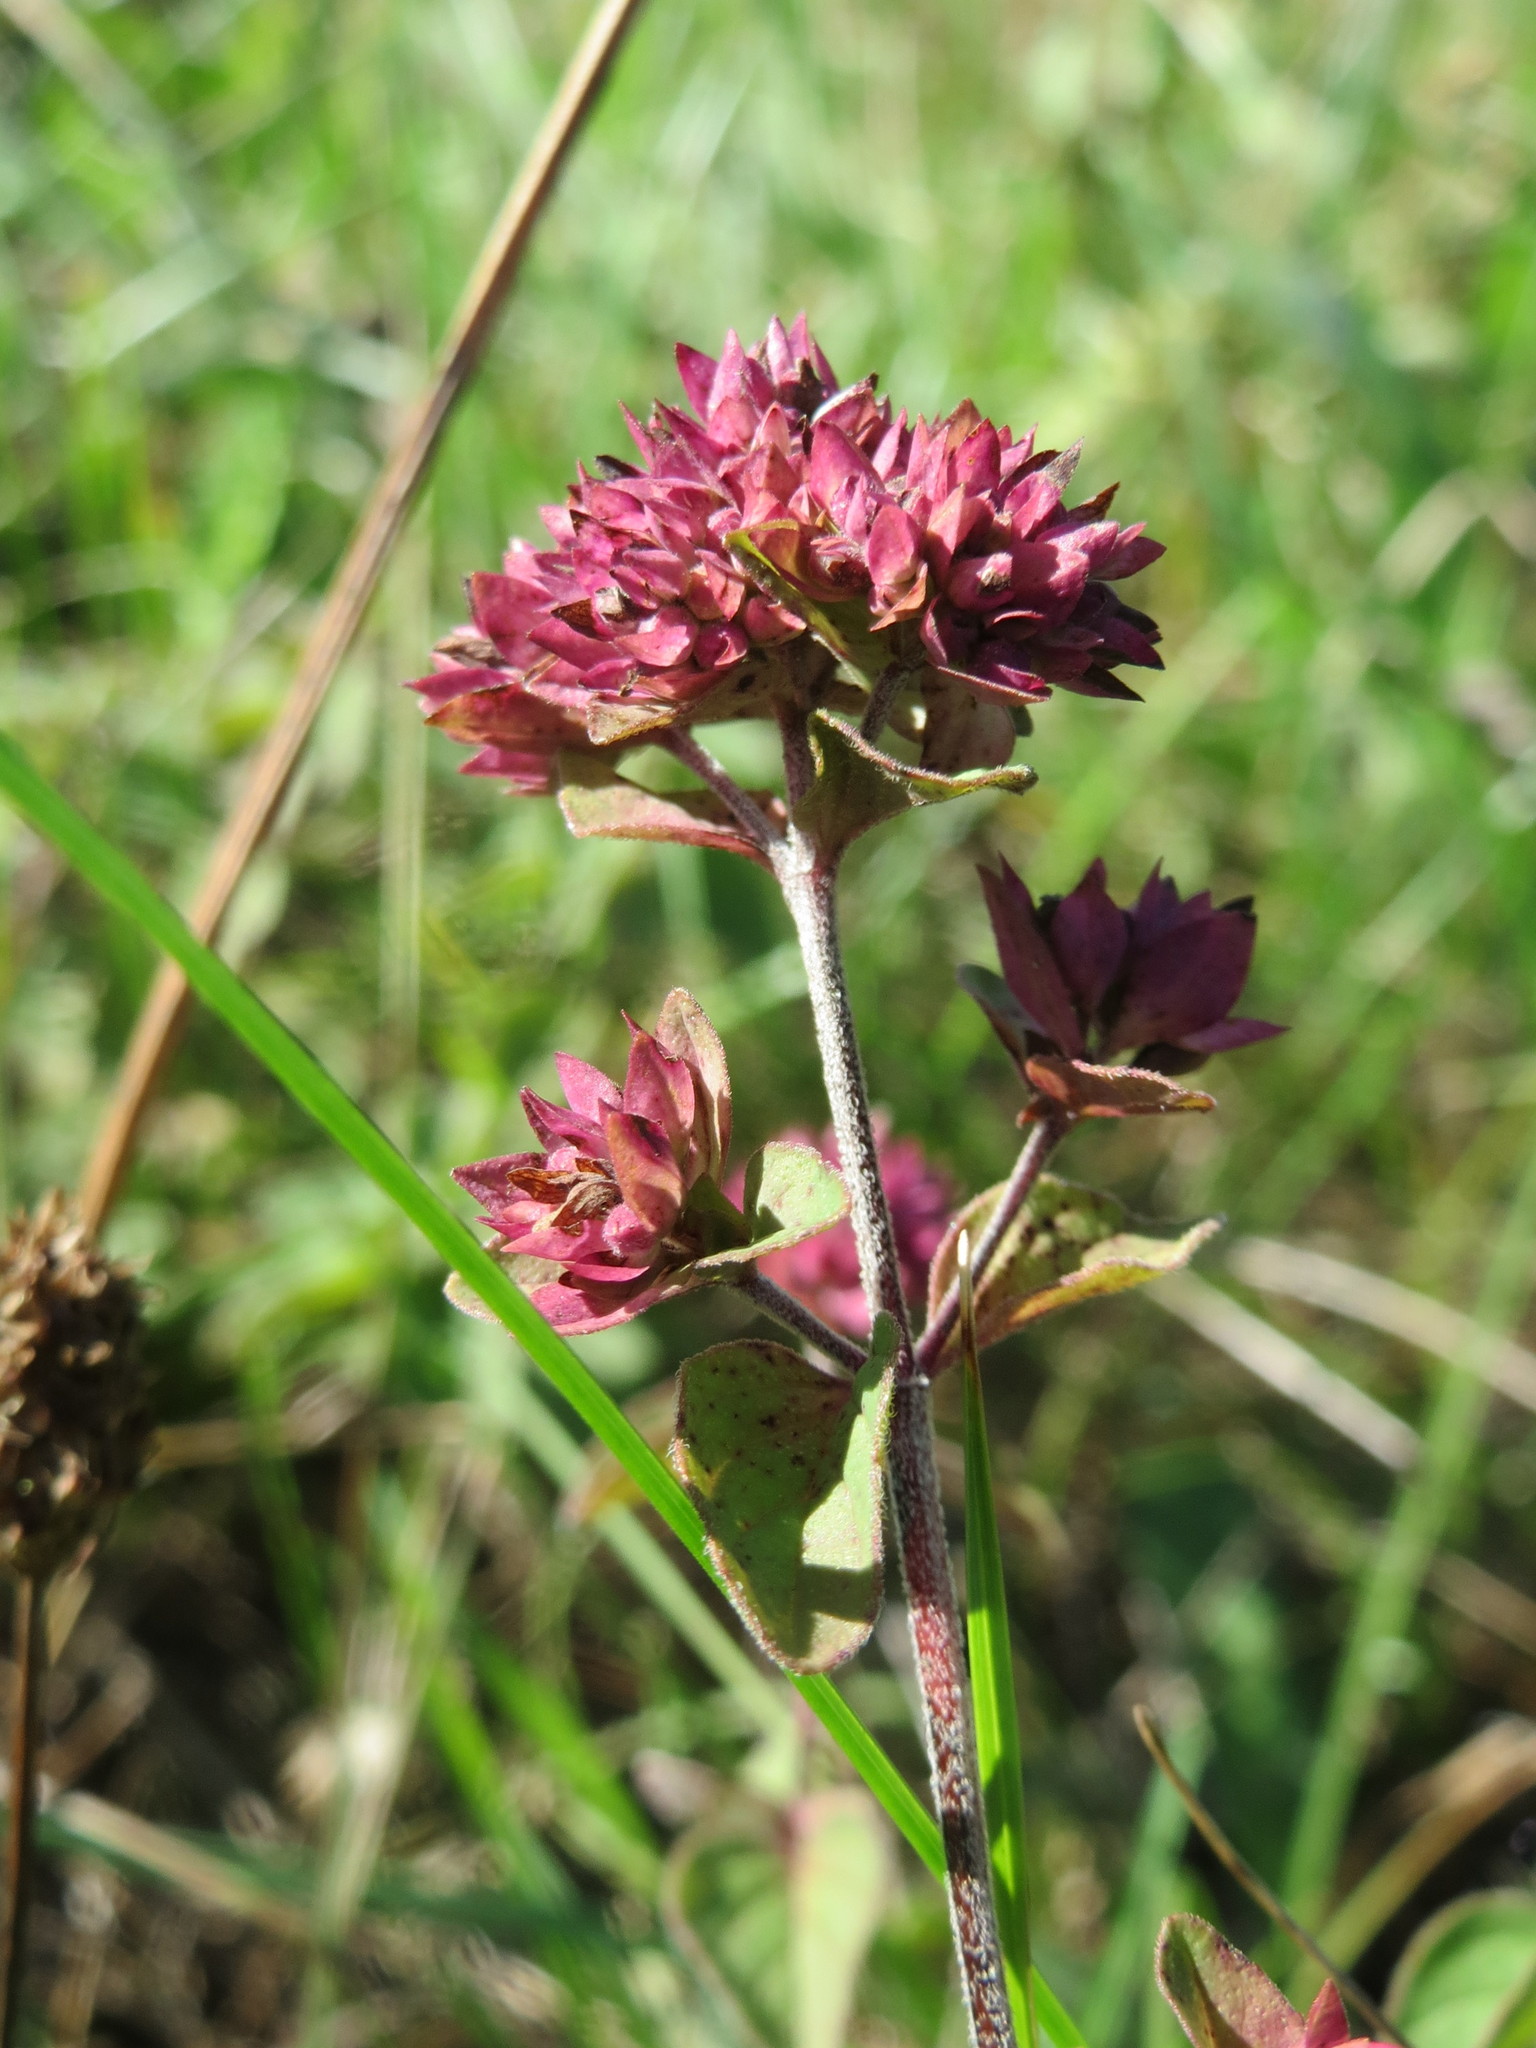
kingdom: Plantae
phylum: Tracheophyta
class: Magnoliopsida
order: Lamiales
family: Lamiaceae
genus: Origanum
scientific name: Origanum vulgare
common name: Wild marjoram
